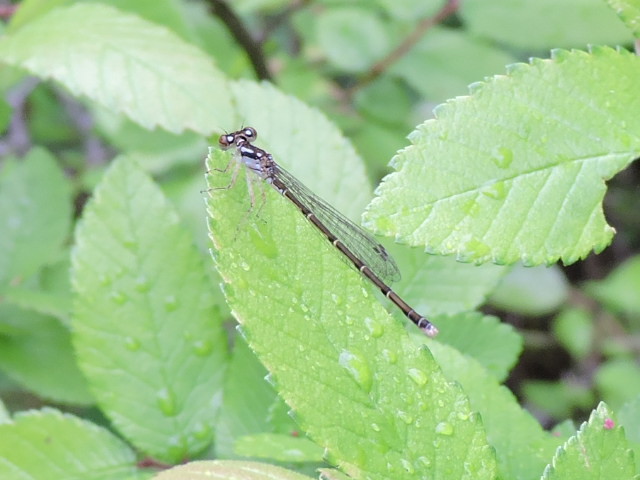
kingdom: Animalia
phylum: Arthropoda
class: Insecta
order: Odonata
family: Coenagrionidae
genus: Ischnura
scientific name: Ischnura posita
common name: Fragile forktail
